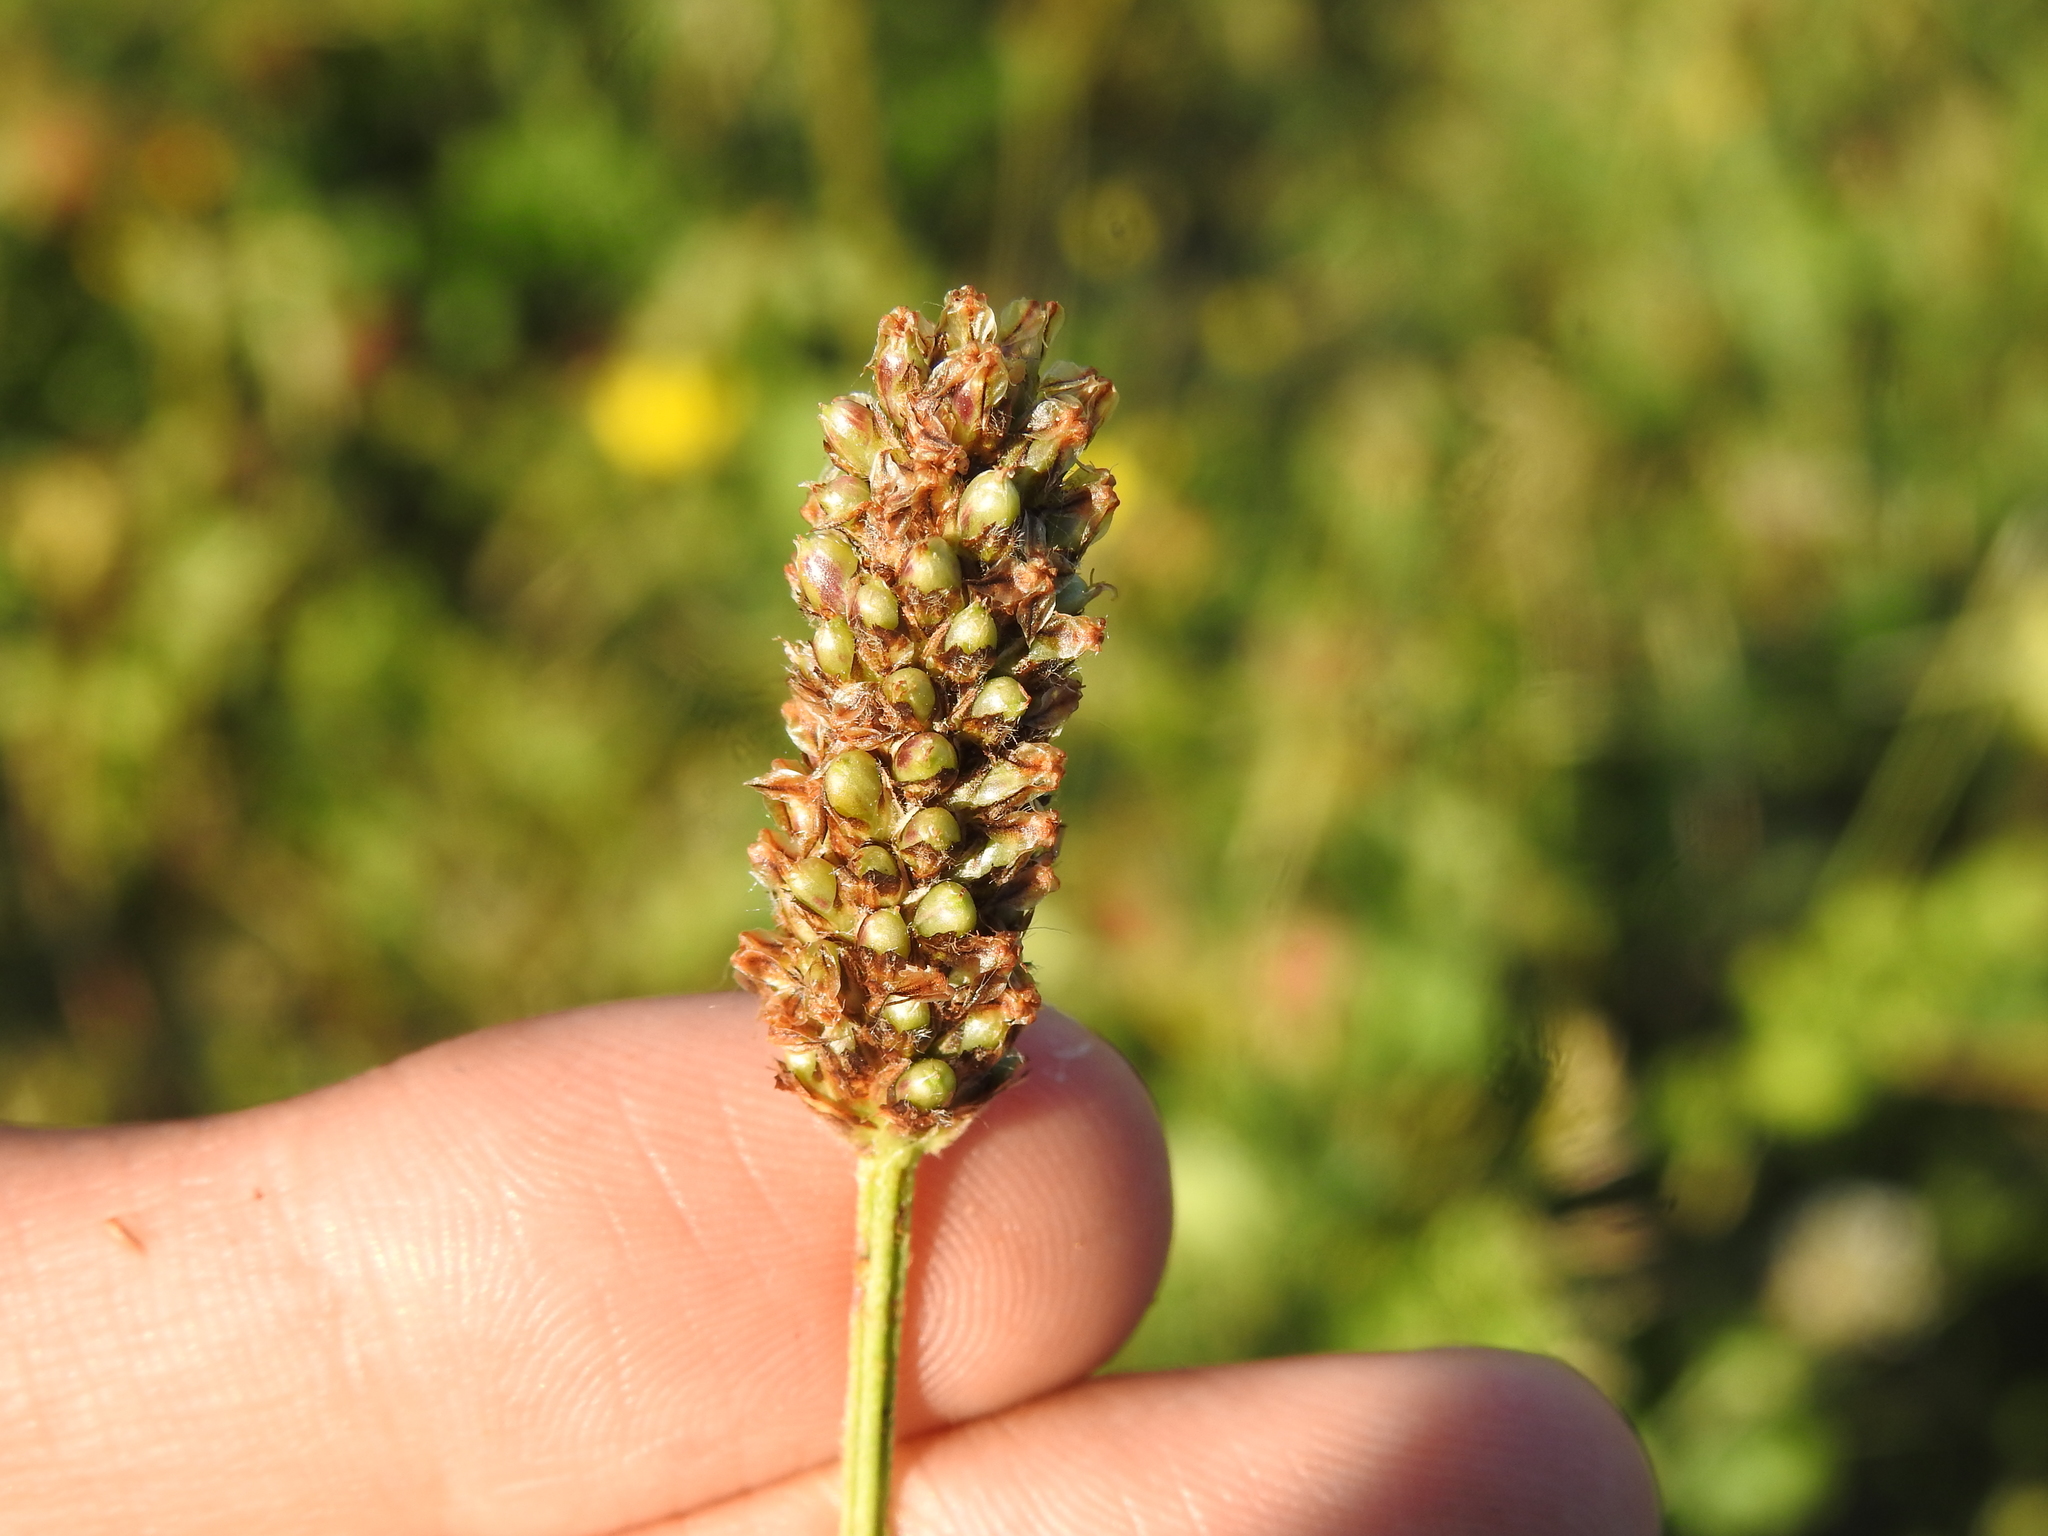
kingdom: Plantae
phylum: Tracheophyta
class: Magnoliopsida
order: Lamiales
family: Plantaginaceae
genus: Plantago
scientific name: Plantago lanceolata
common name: Ribwort plantain
